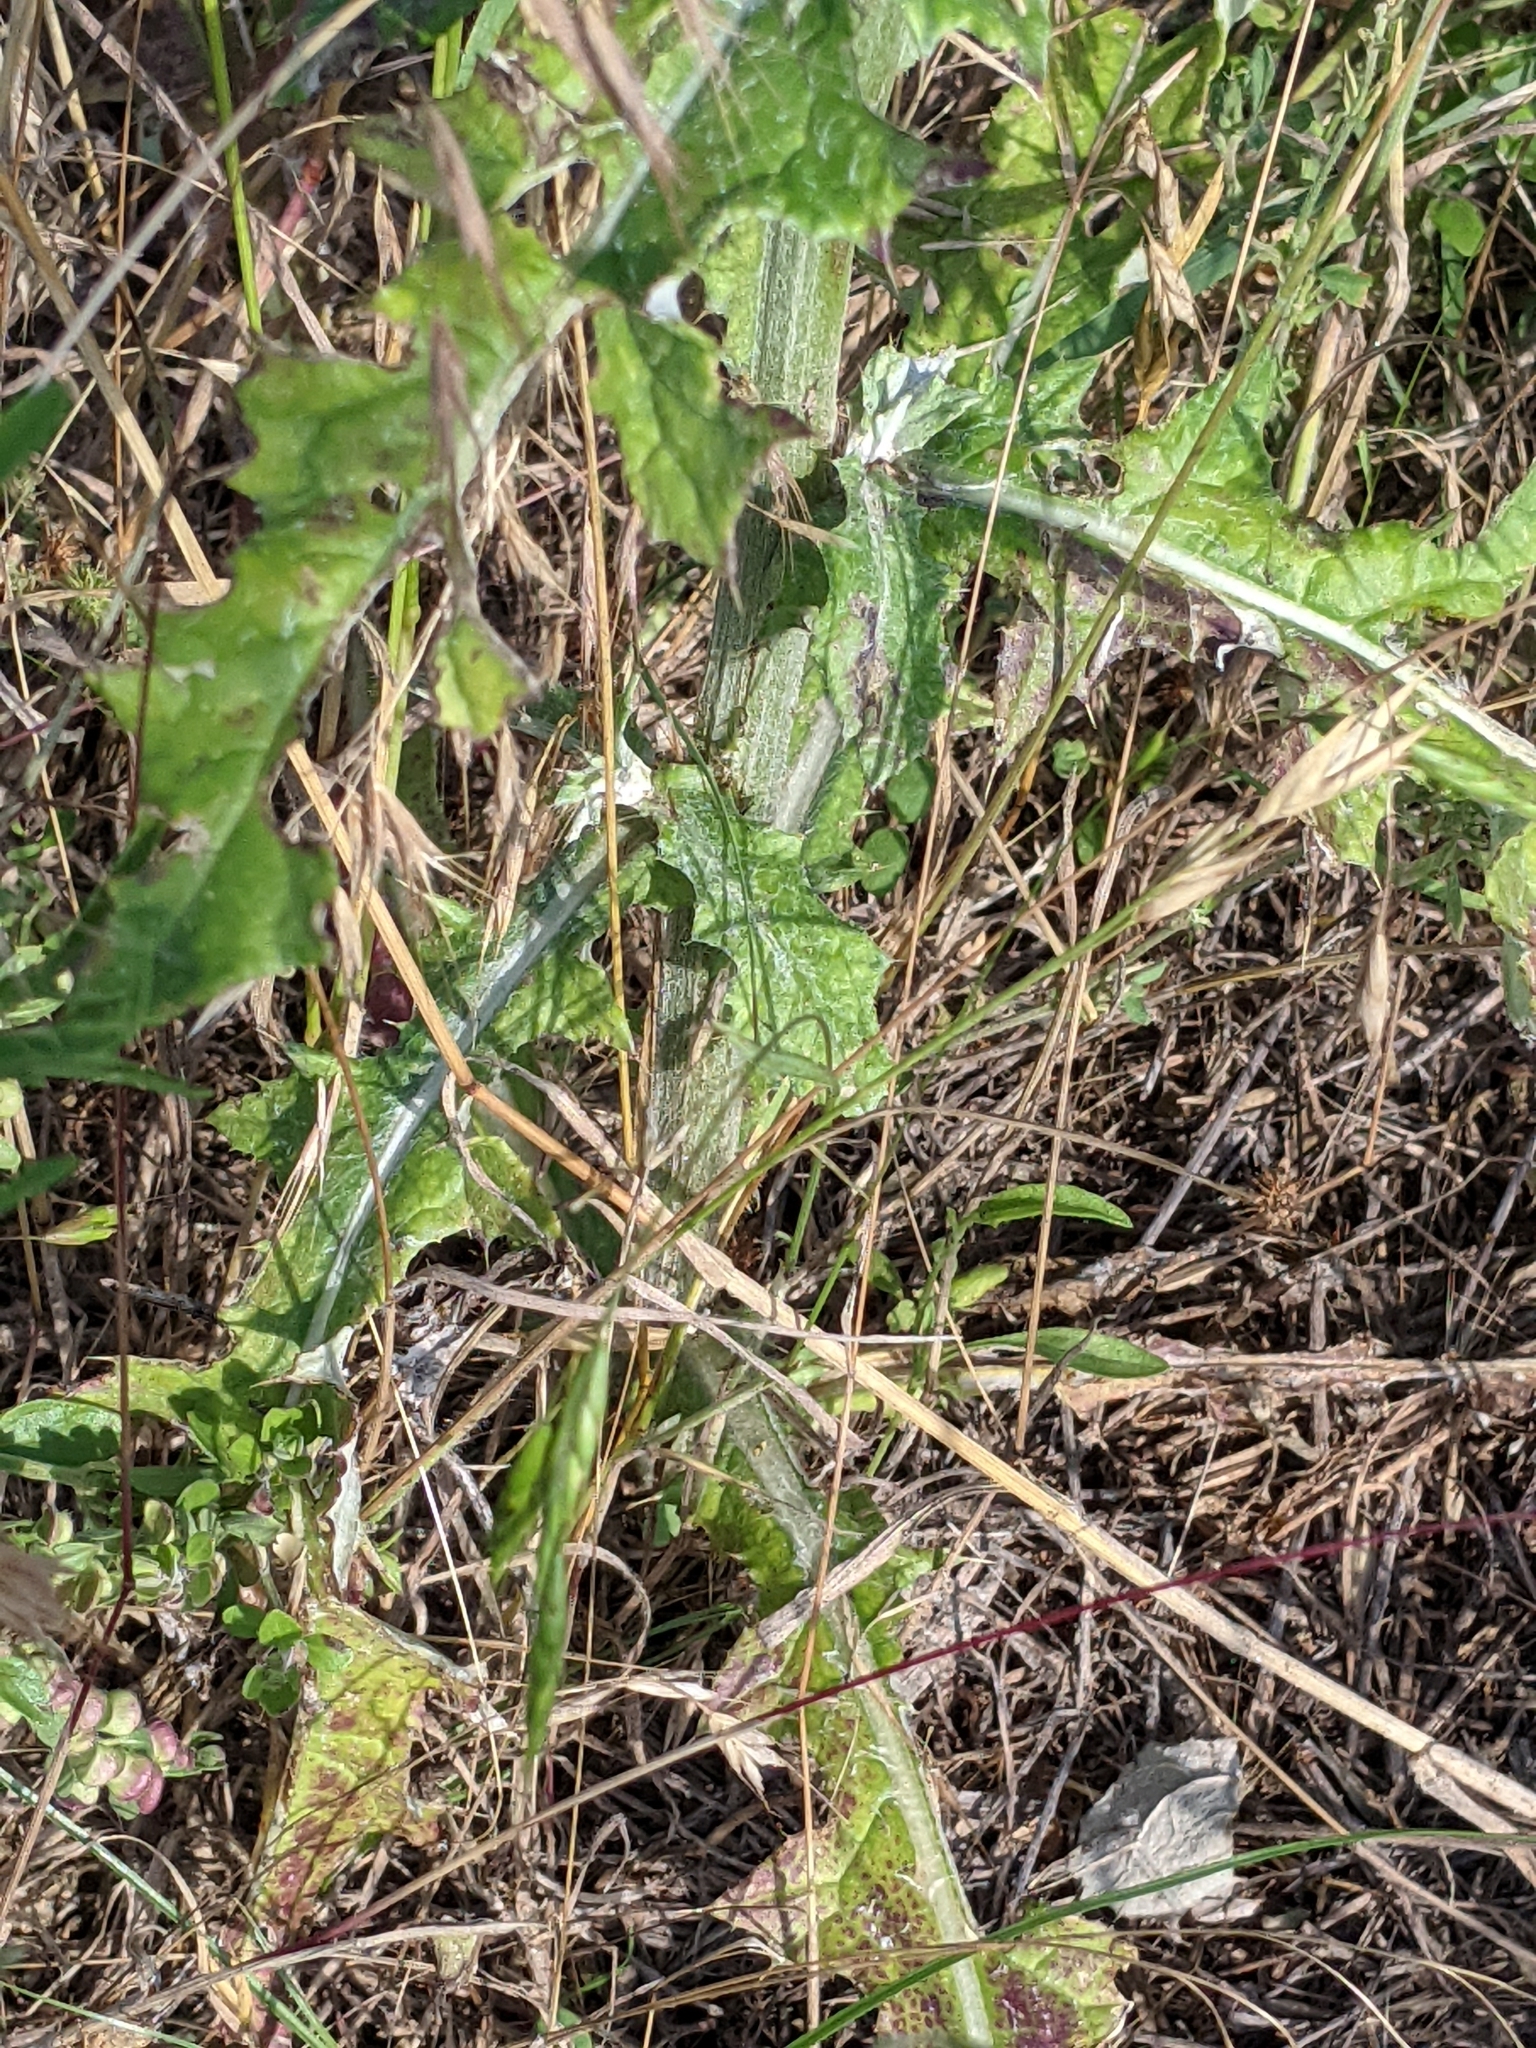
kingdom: Plantae
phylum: Tracheophyta
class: Magnoliopsida
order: Asterales
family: Asteraceae
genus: Cirsium
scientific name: Cirsium texanum
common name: Texas purple thistle
